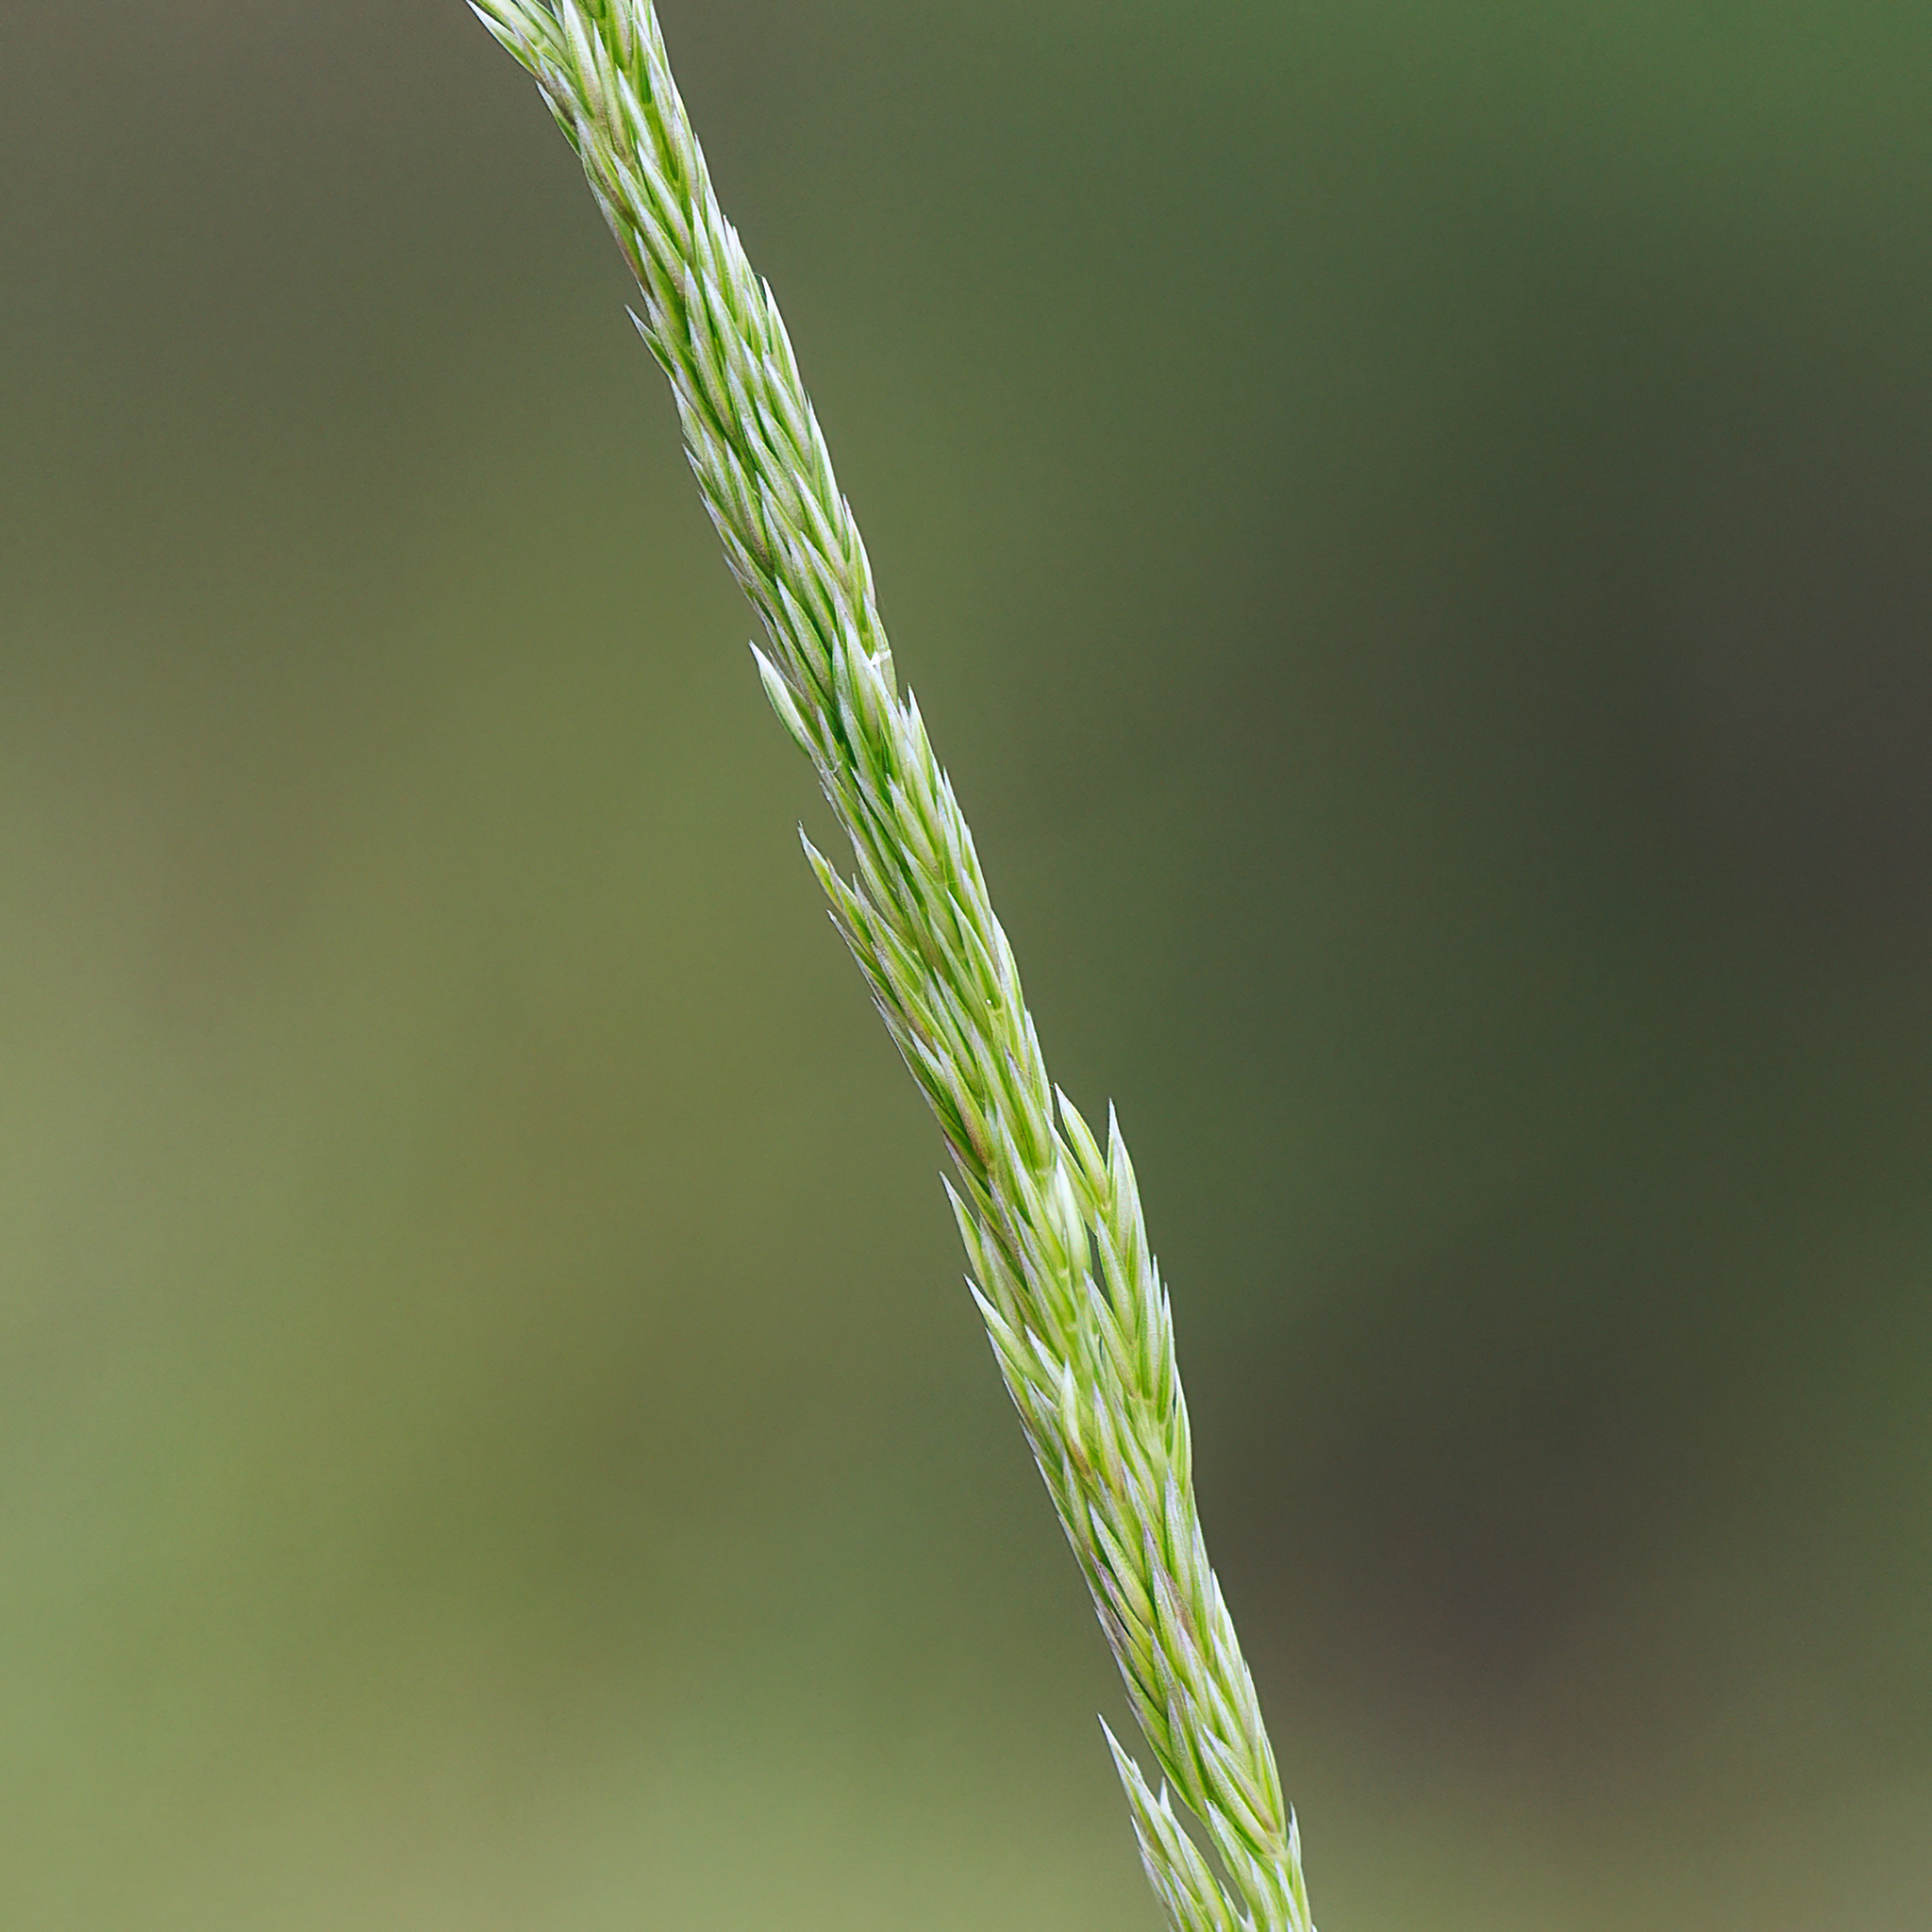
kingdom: Plantae
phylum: Tracheophyta
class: Liliopsida
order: Poales
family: Poaceae
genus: Calamagrostis
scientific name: Calamagrostis quadriseta
